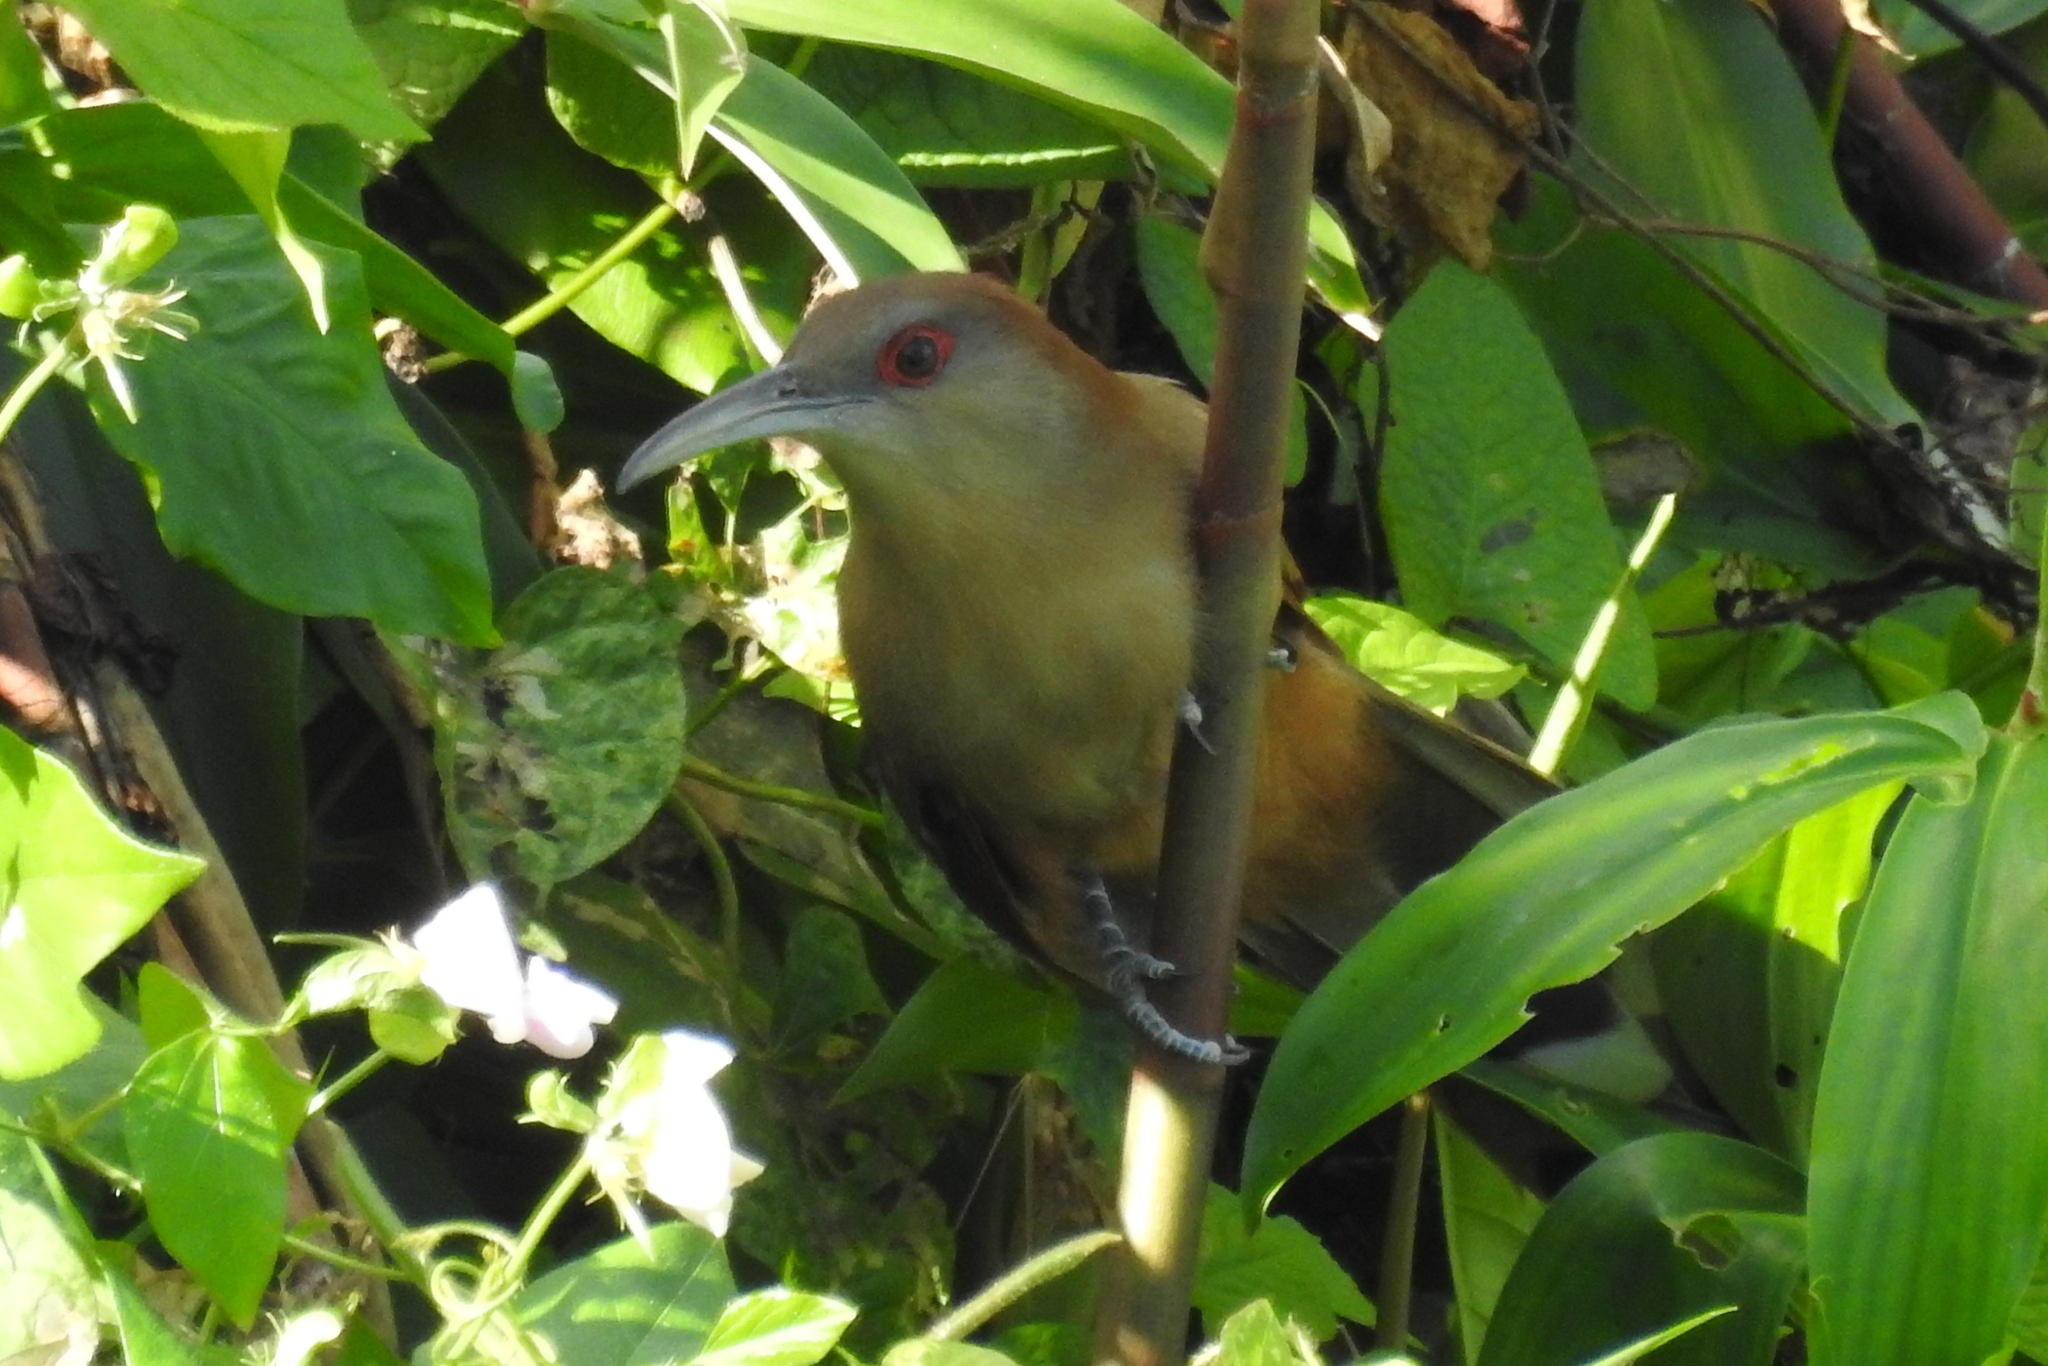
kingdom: Animalia
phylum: Chordata
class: Aves
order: Cuculiformes
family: Cuculidae
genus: Saurothera
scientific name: Saurothera merlini
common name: Great lizard-cuckoo
